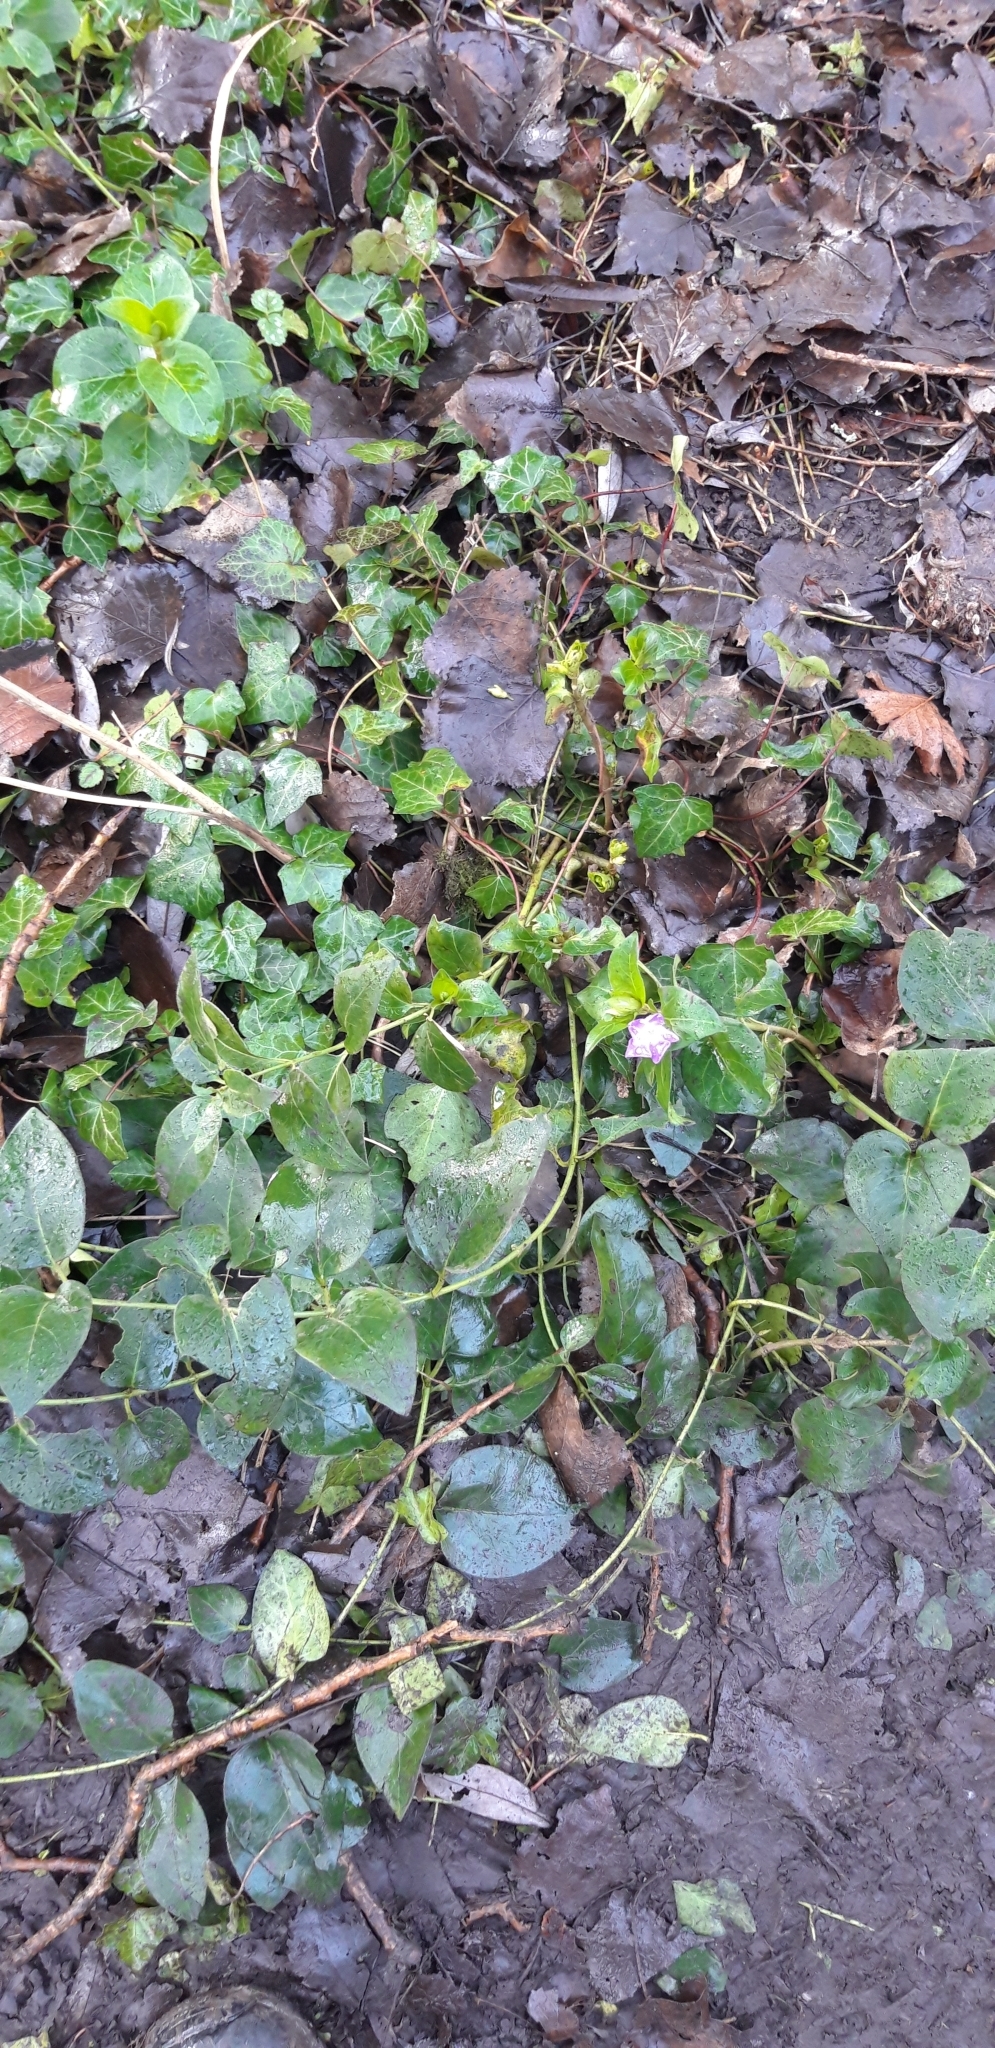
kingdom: Plantae
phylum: Tracheophyta
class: Magnoliopsida
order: Gentianales
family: Apocynaceae
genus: Vinca
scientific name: Vinca major
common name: Greater periwinkle
